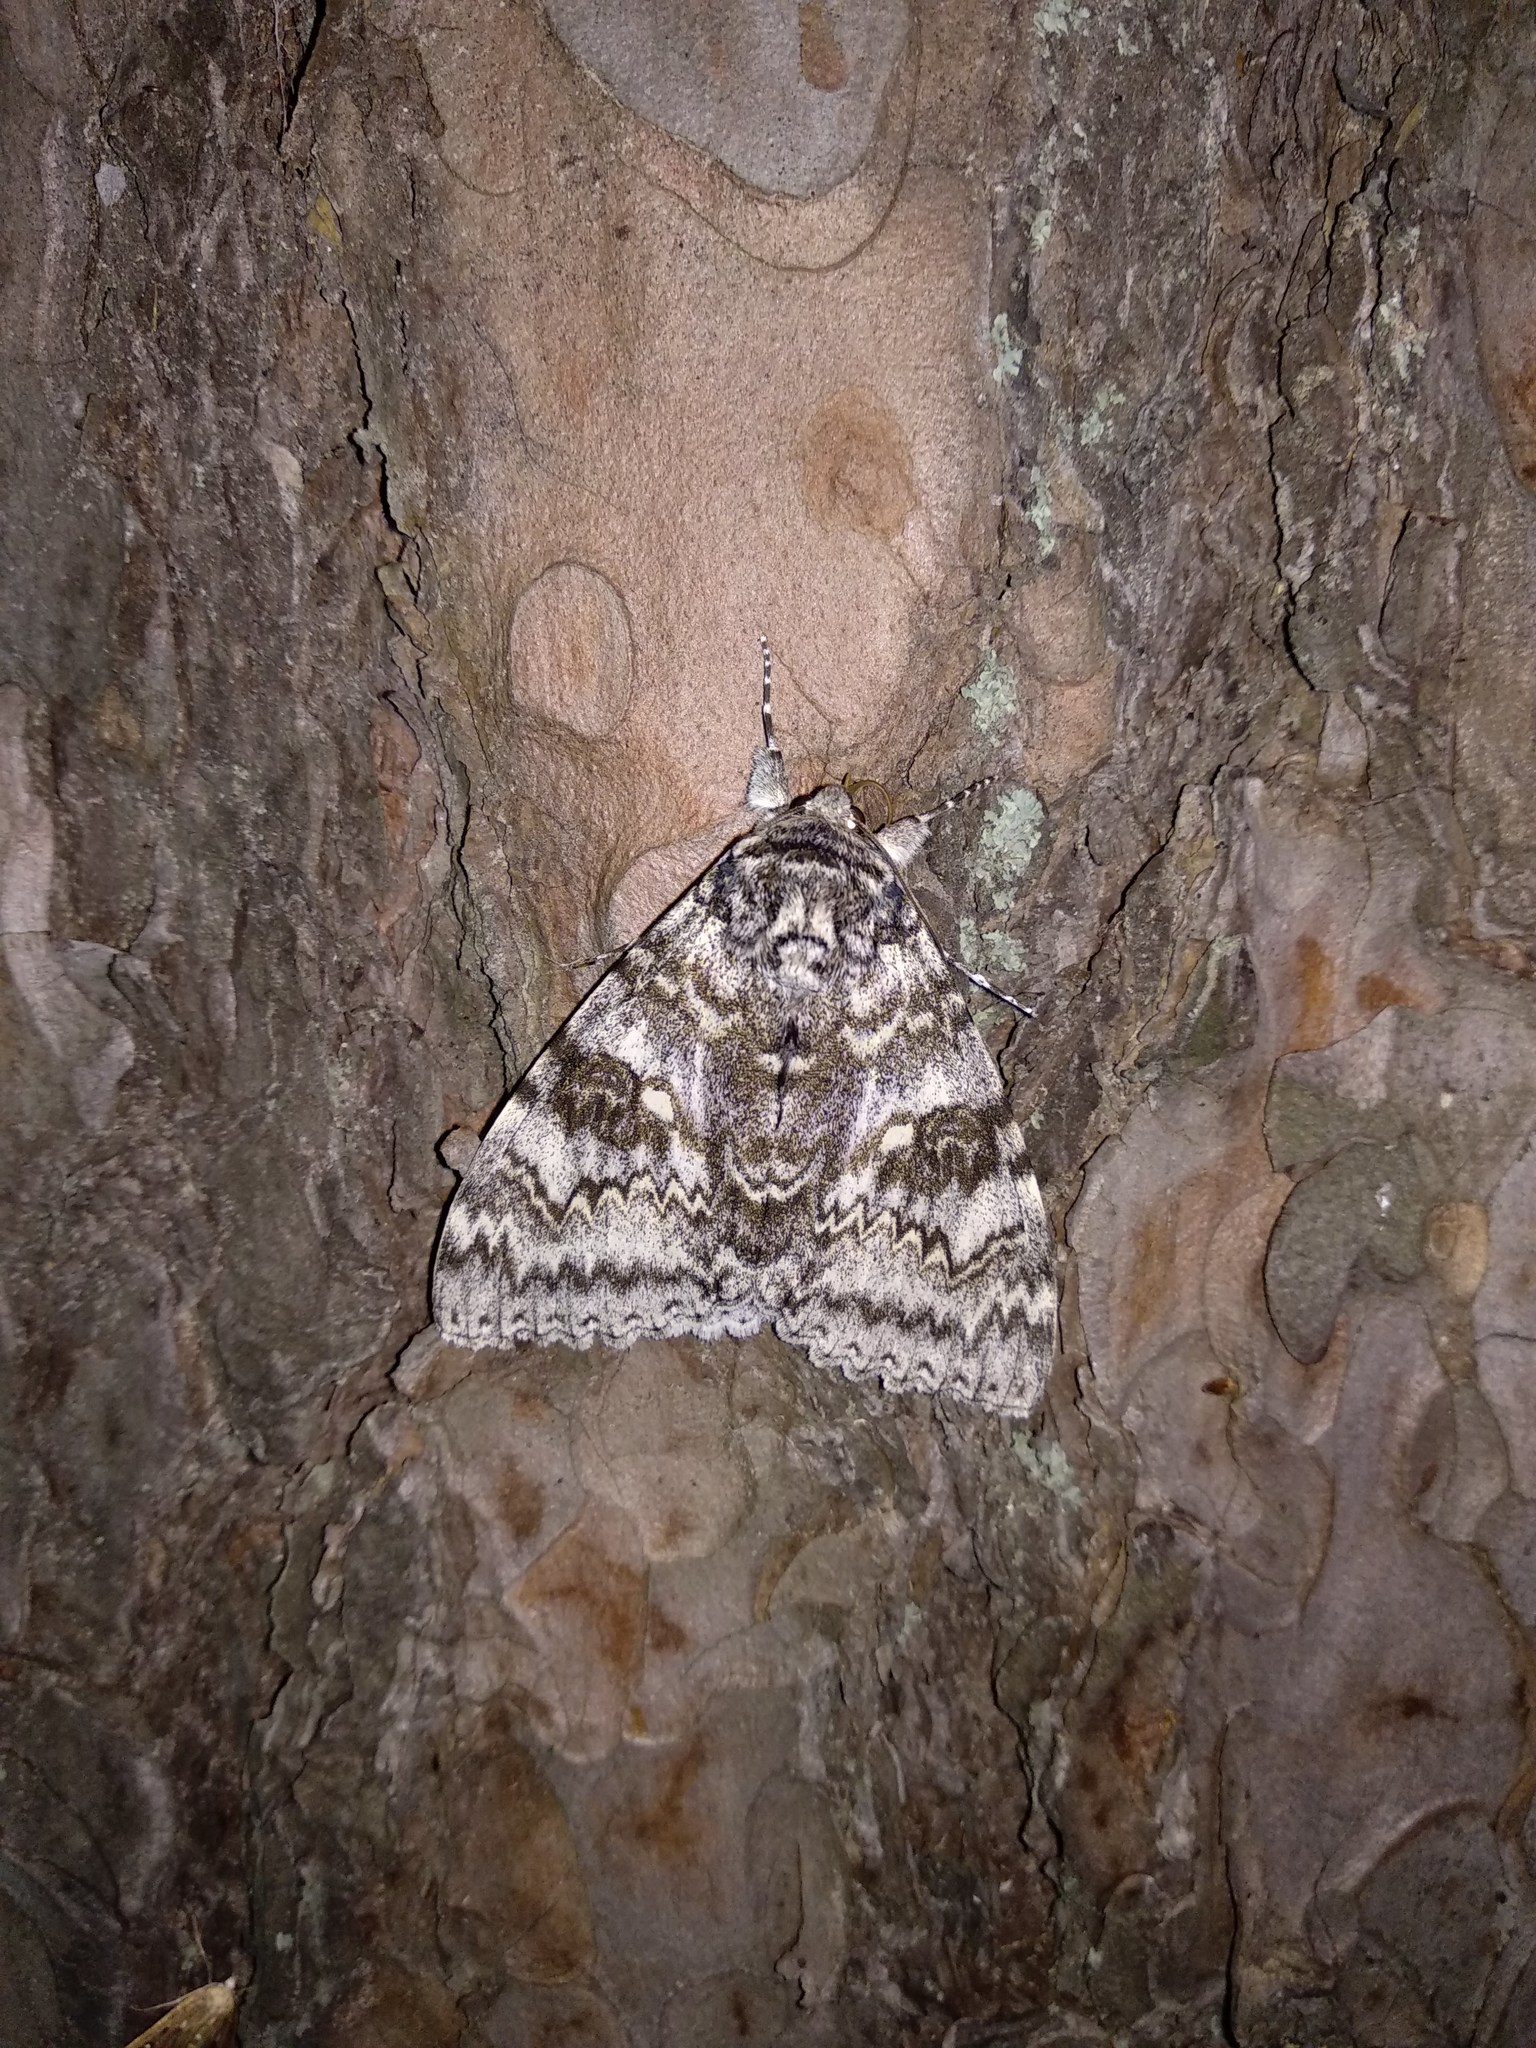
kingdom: Animalia
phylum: Arthropoda
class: Insecta
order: Lepidoptera
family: Erebidae
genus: Catocala
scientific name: Catocala fraxini
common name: Clifden nonpareil
